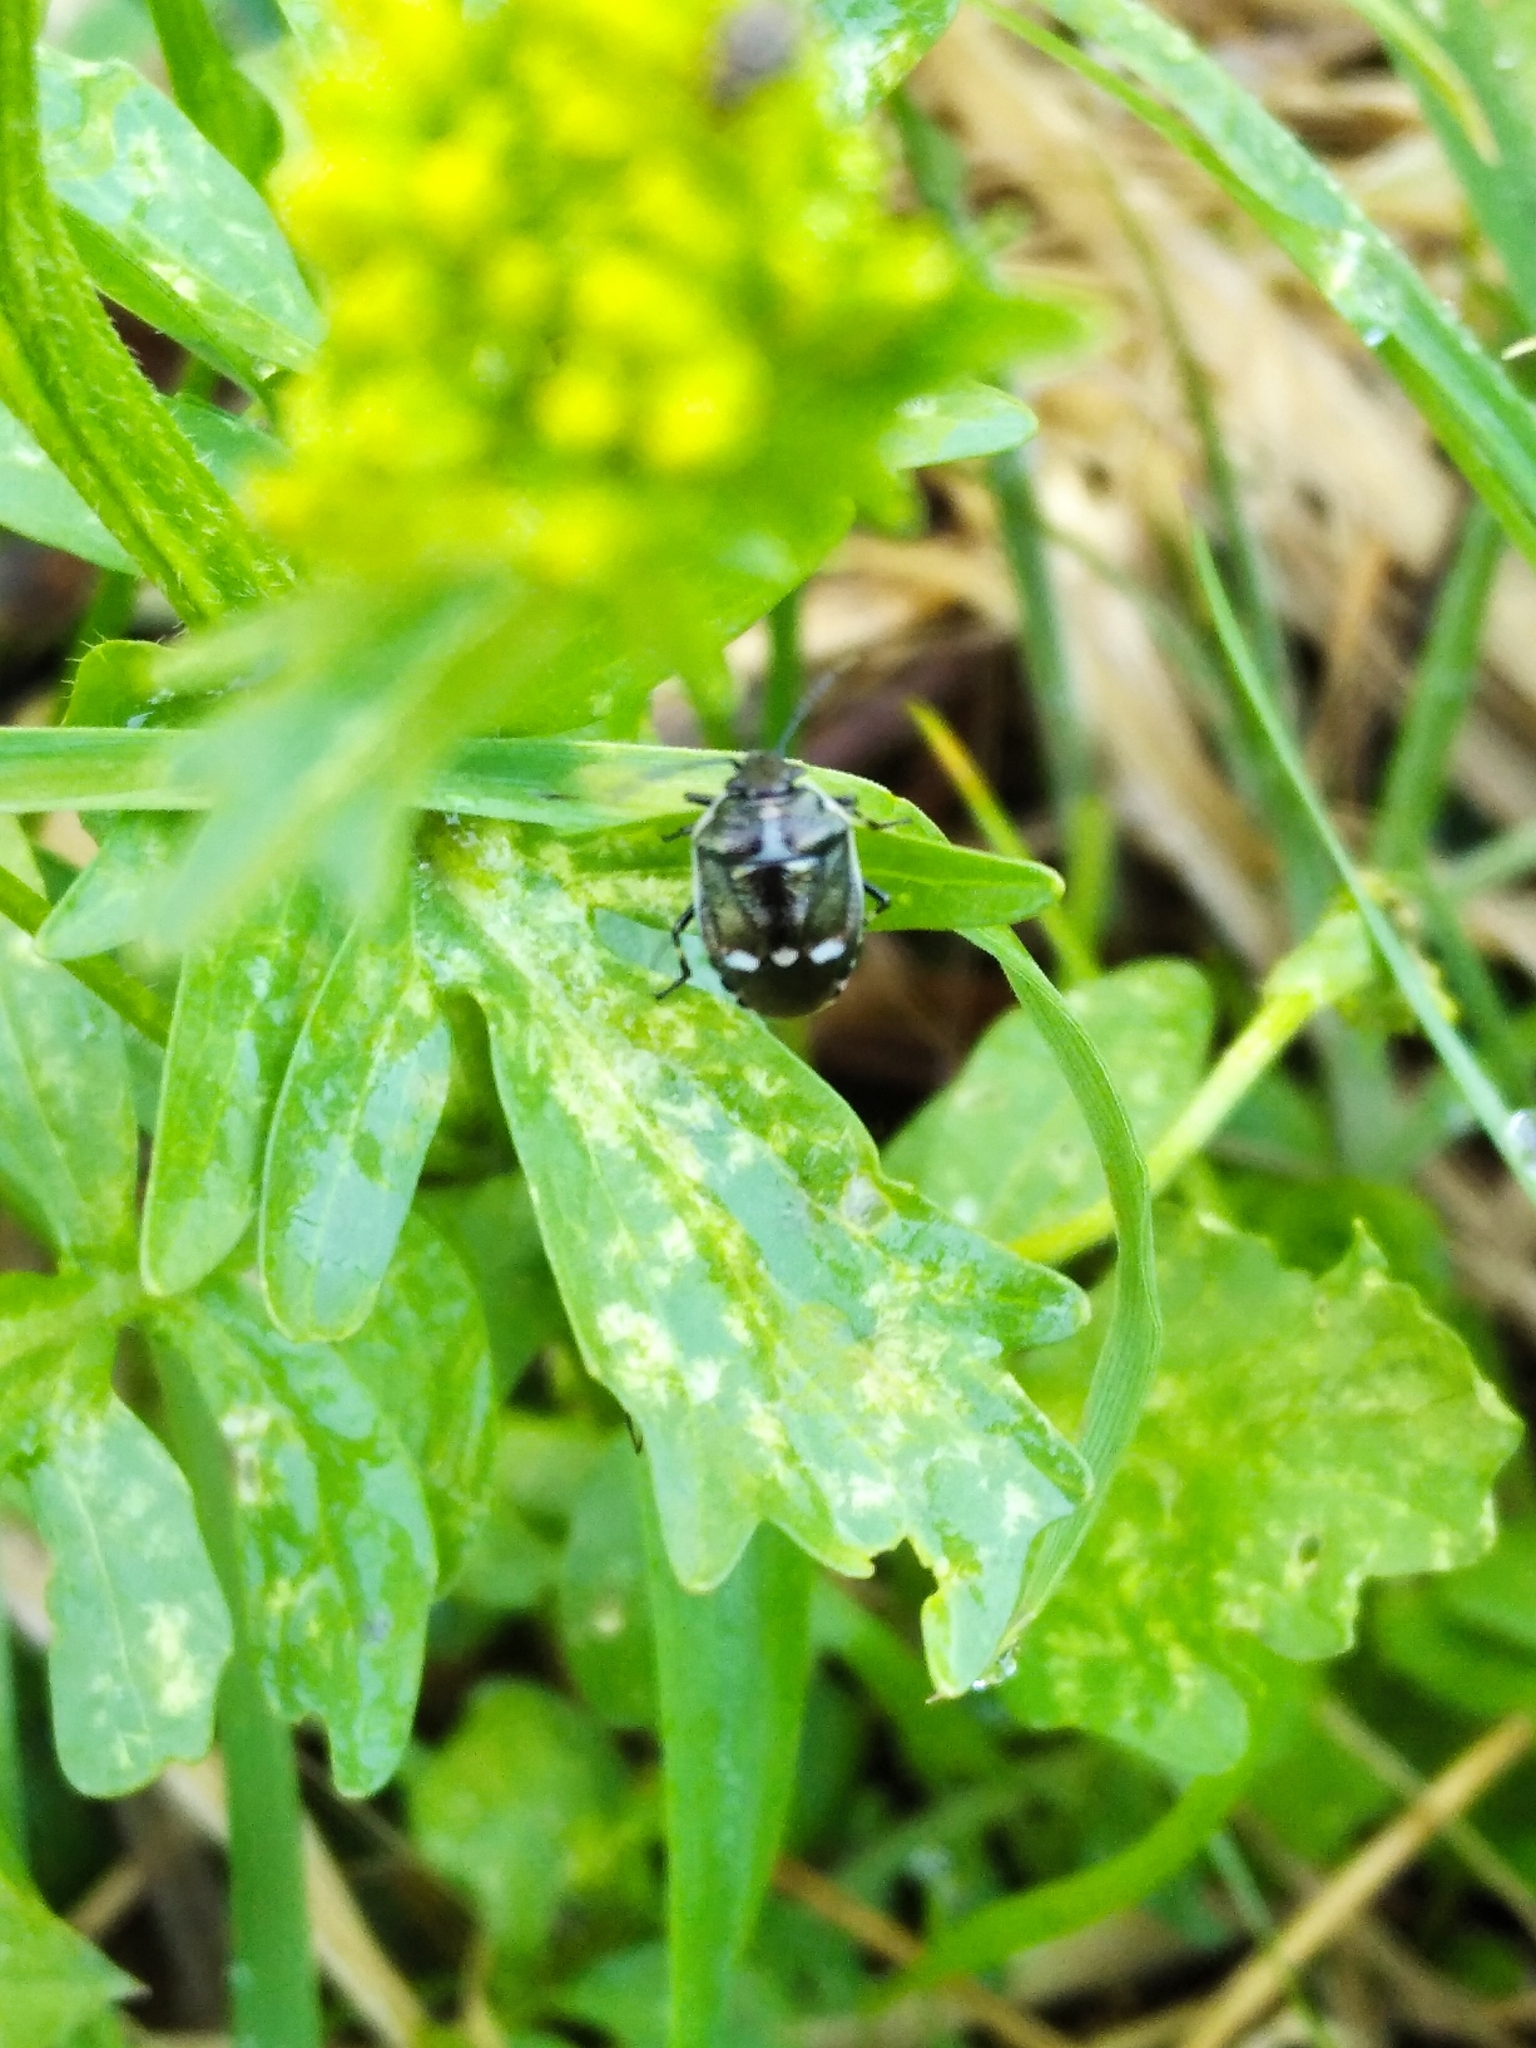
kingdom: Animalia
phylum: Arthropoda
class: Insecta
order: Hemiptera
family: Pentatomidae
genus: Eurydema
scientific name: Eurydema oleracea
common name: Cabbage bug
